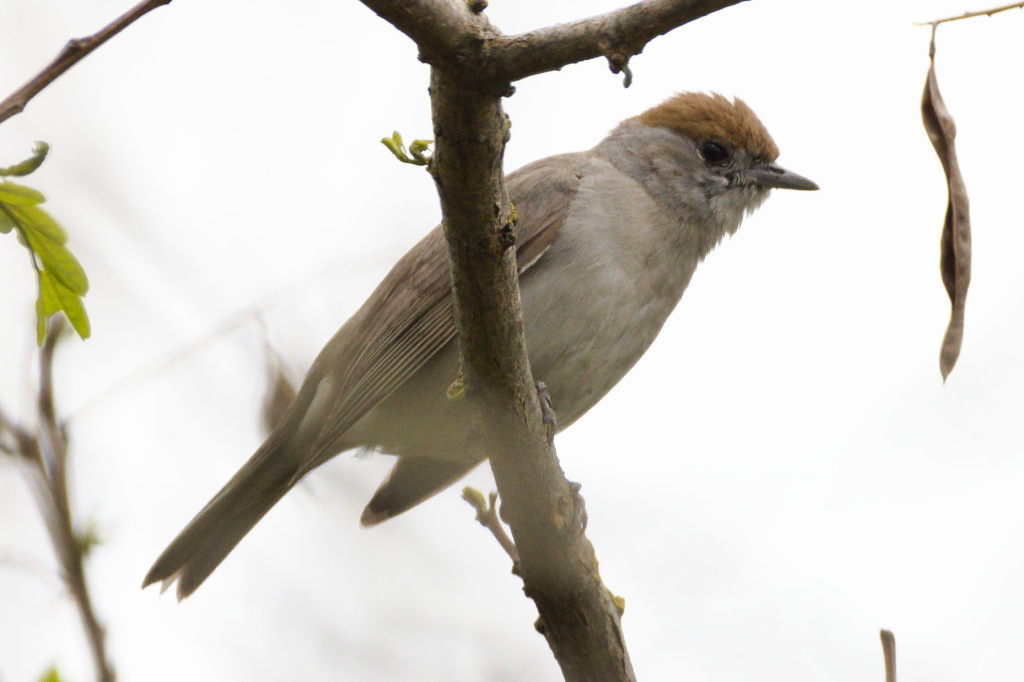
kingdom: Animalia
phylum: Chordata
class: Aves
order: Passeriformes
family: Sylviidae
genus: Sylvia
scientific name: Sylvia atricapilla
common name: Eurasian blackcap
